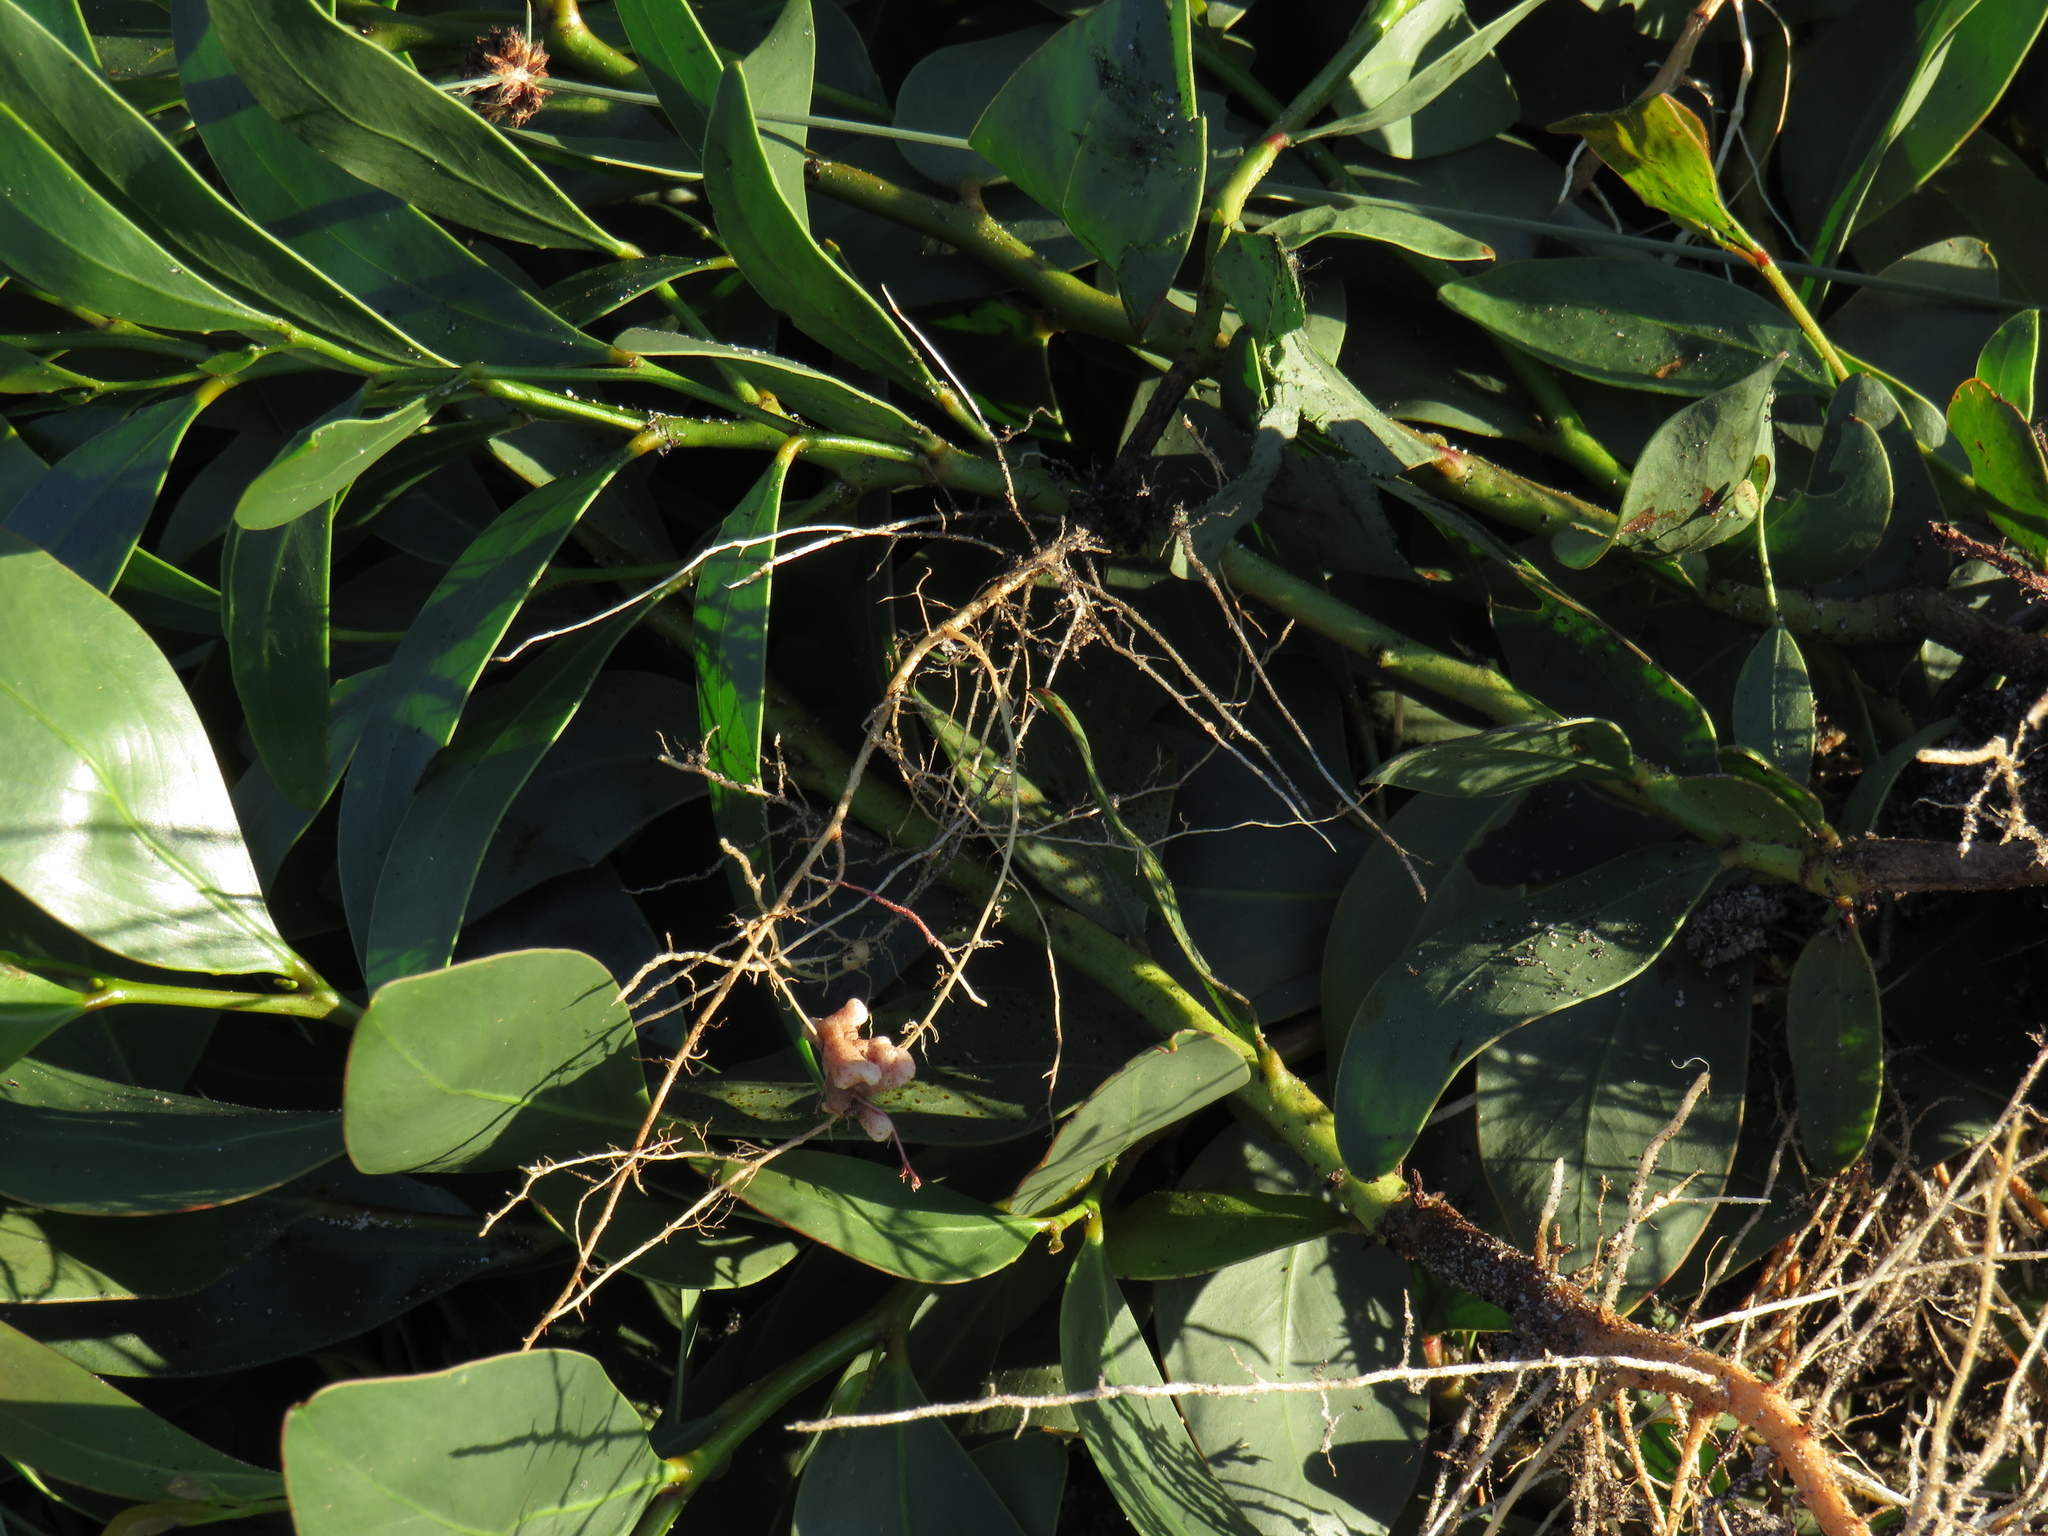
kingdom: Plantae
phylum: Tracheophyta
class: Magnoliopsida
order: Fabales
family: Fabaceae
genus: Acacia
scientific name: Acacia pycnantha
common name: Golden wattle
